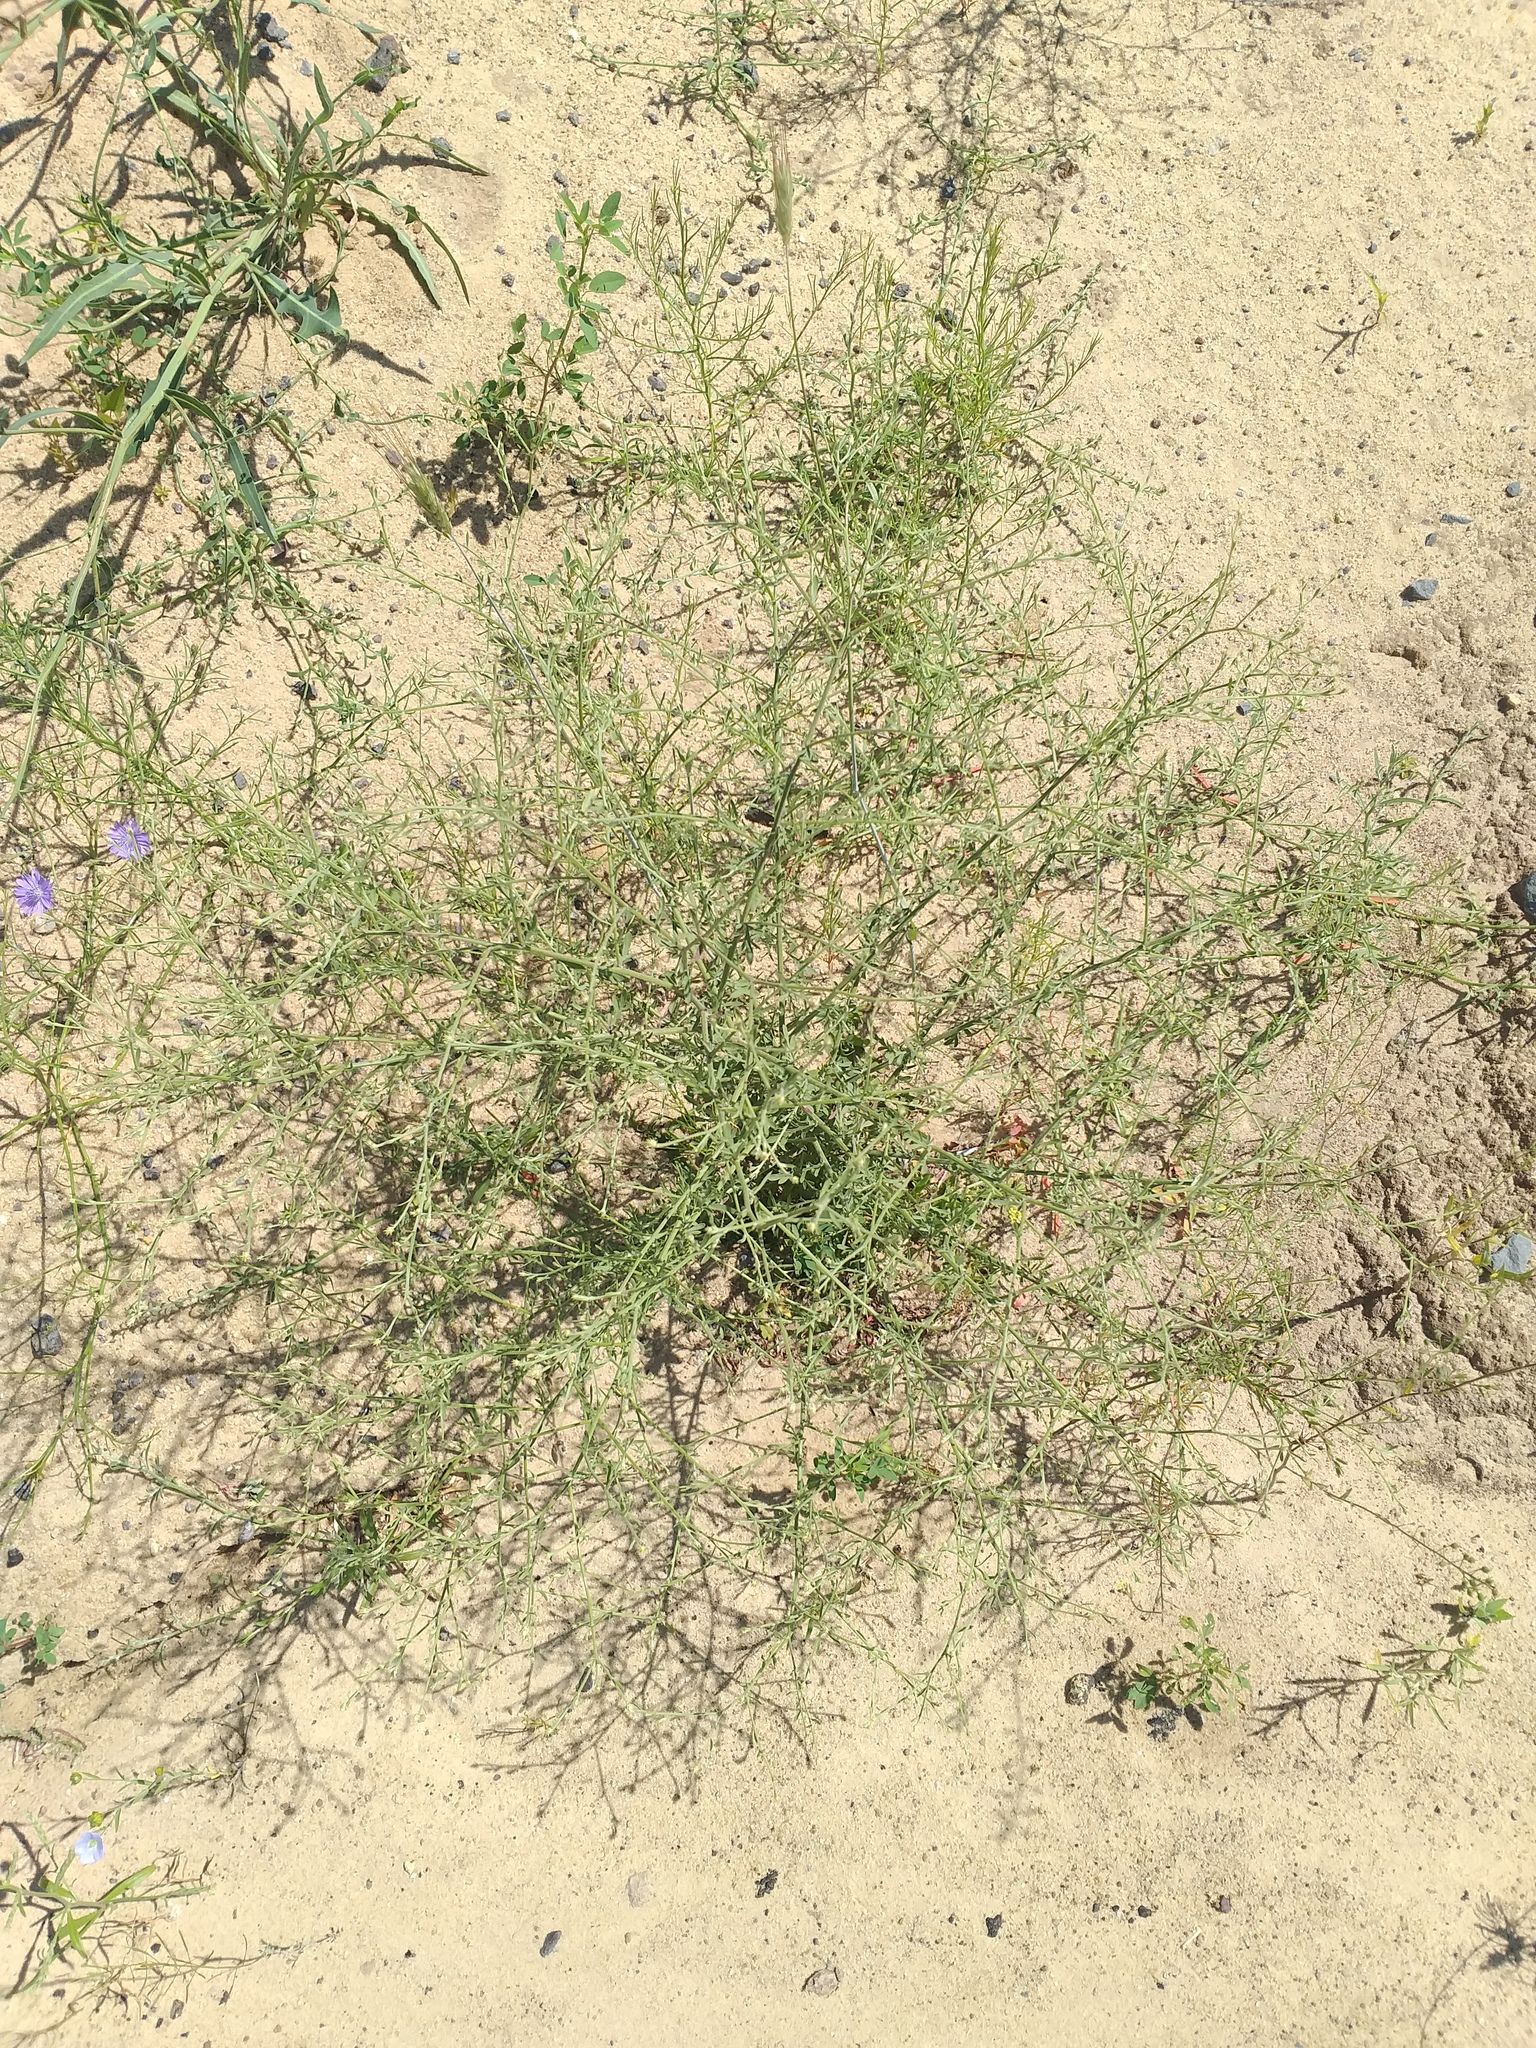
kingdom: Plantae
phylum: Tracheophyta
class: Magnoliopsida
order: Asterales
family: Asteraceae
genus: Centaurea
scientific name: Centaurea diffusa
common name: Diffuse knapweed
